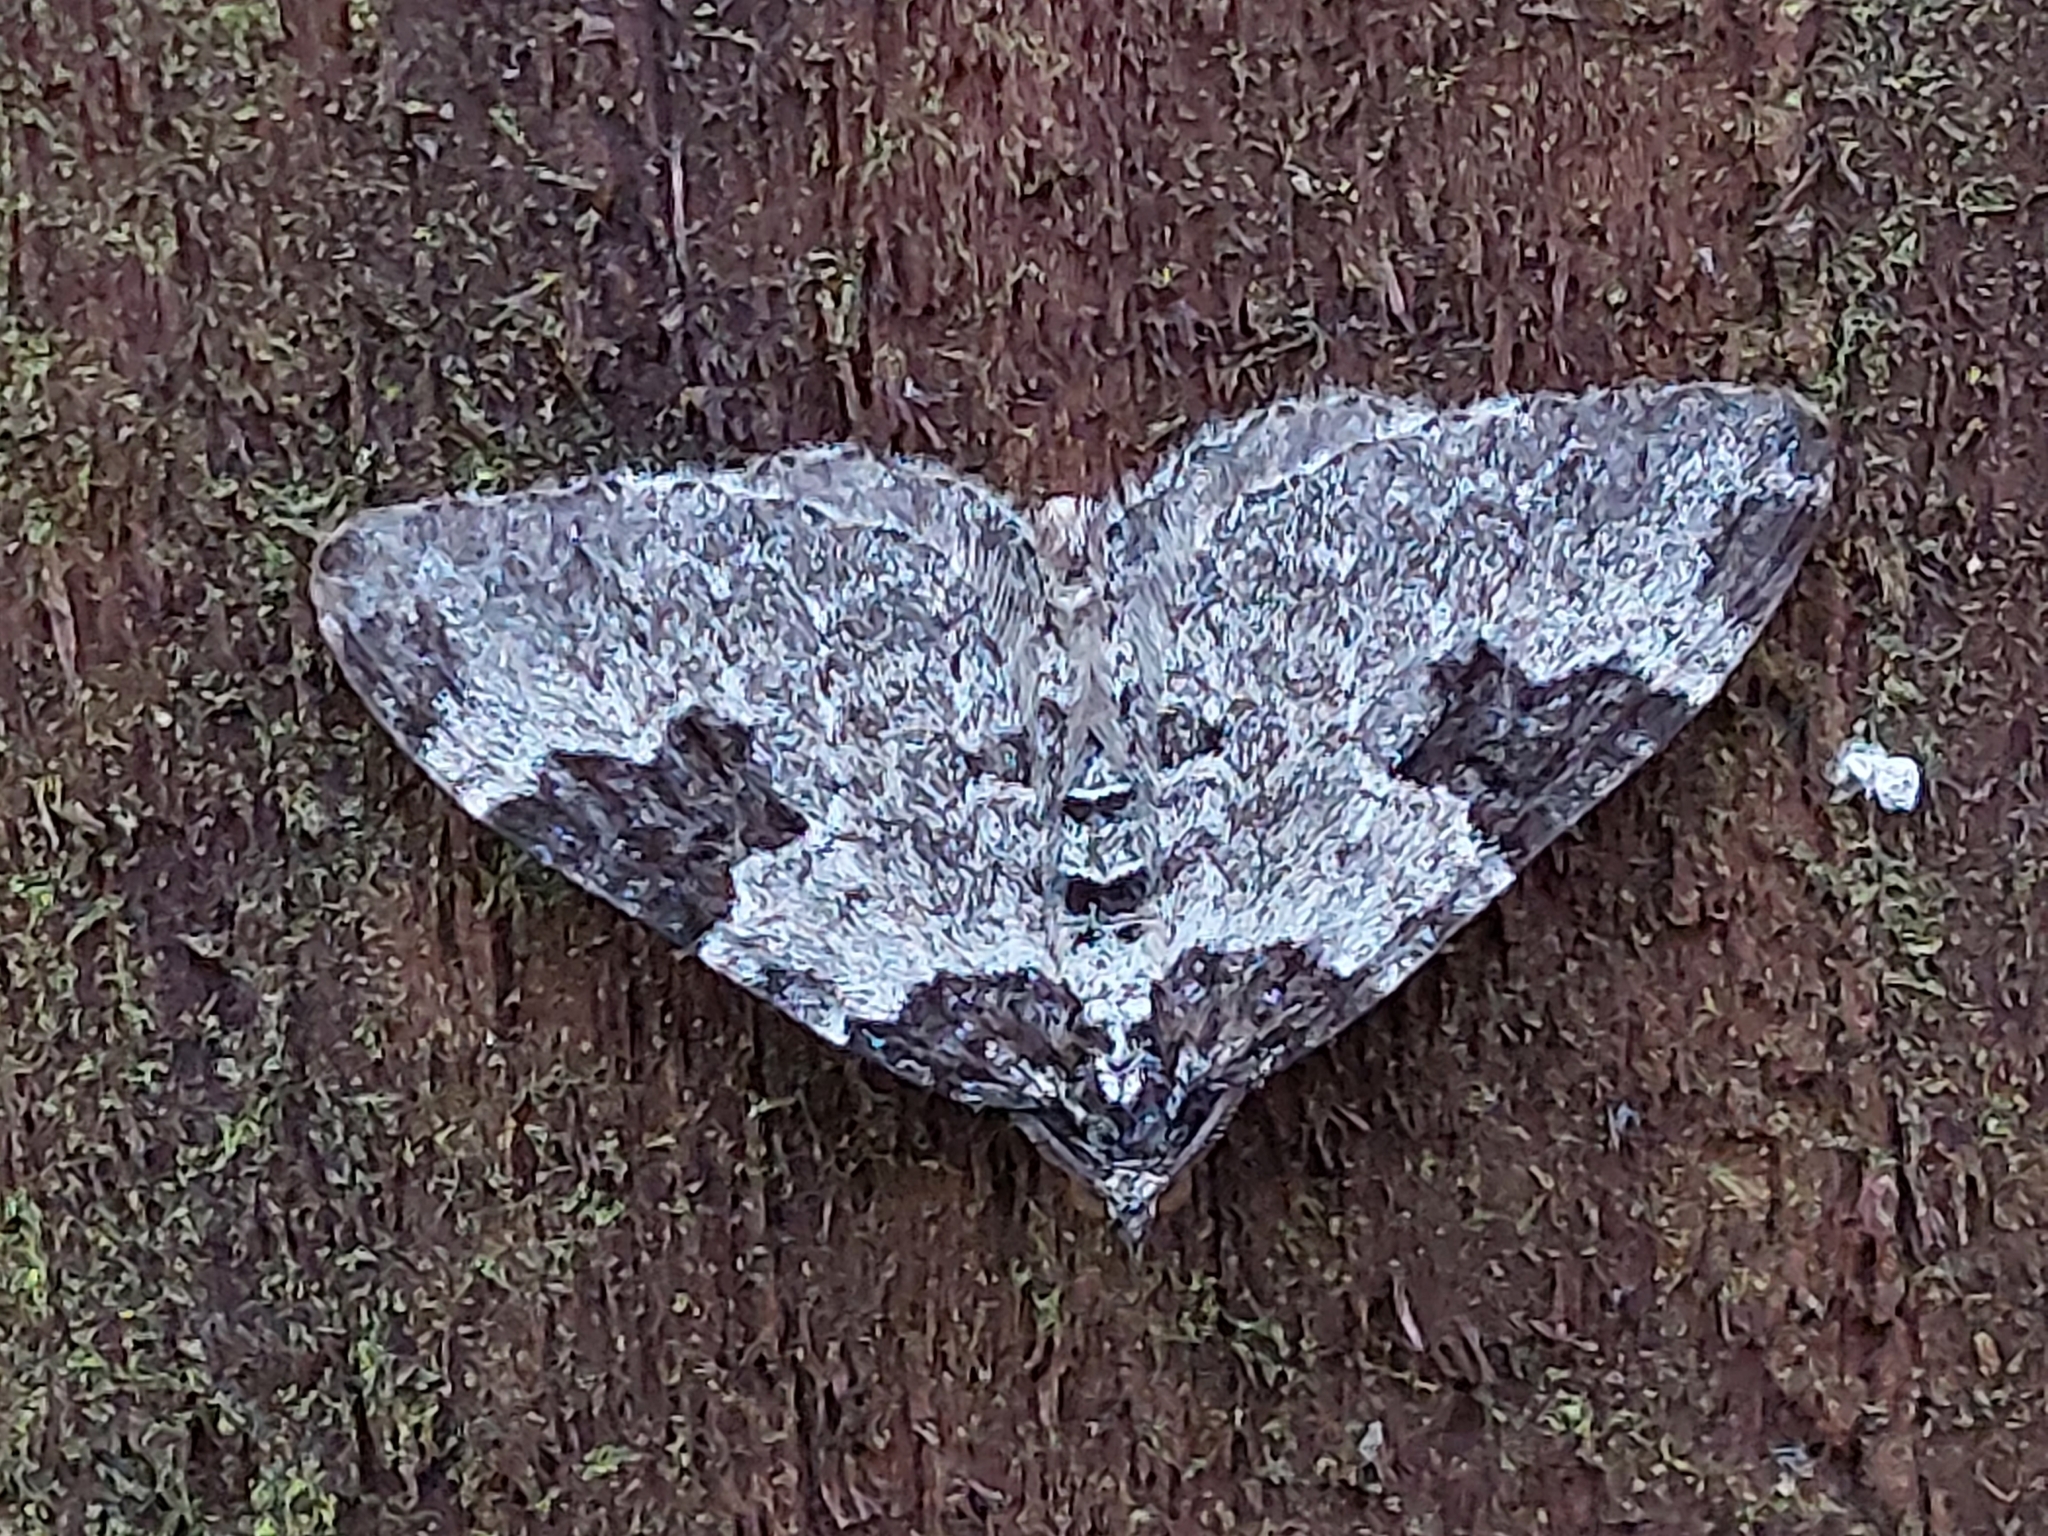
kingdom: Animalia
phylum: Arthropoda
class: Insecta
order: Lepidoptera
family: Geometridae
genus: Xanthorhoe
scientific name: Xanthorhoe fluctuata
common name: Garden carpet
